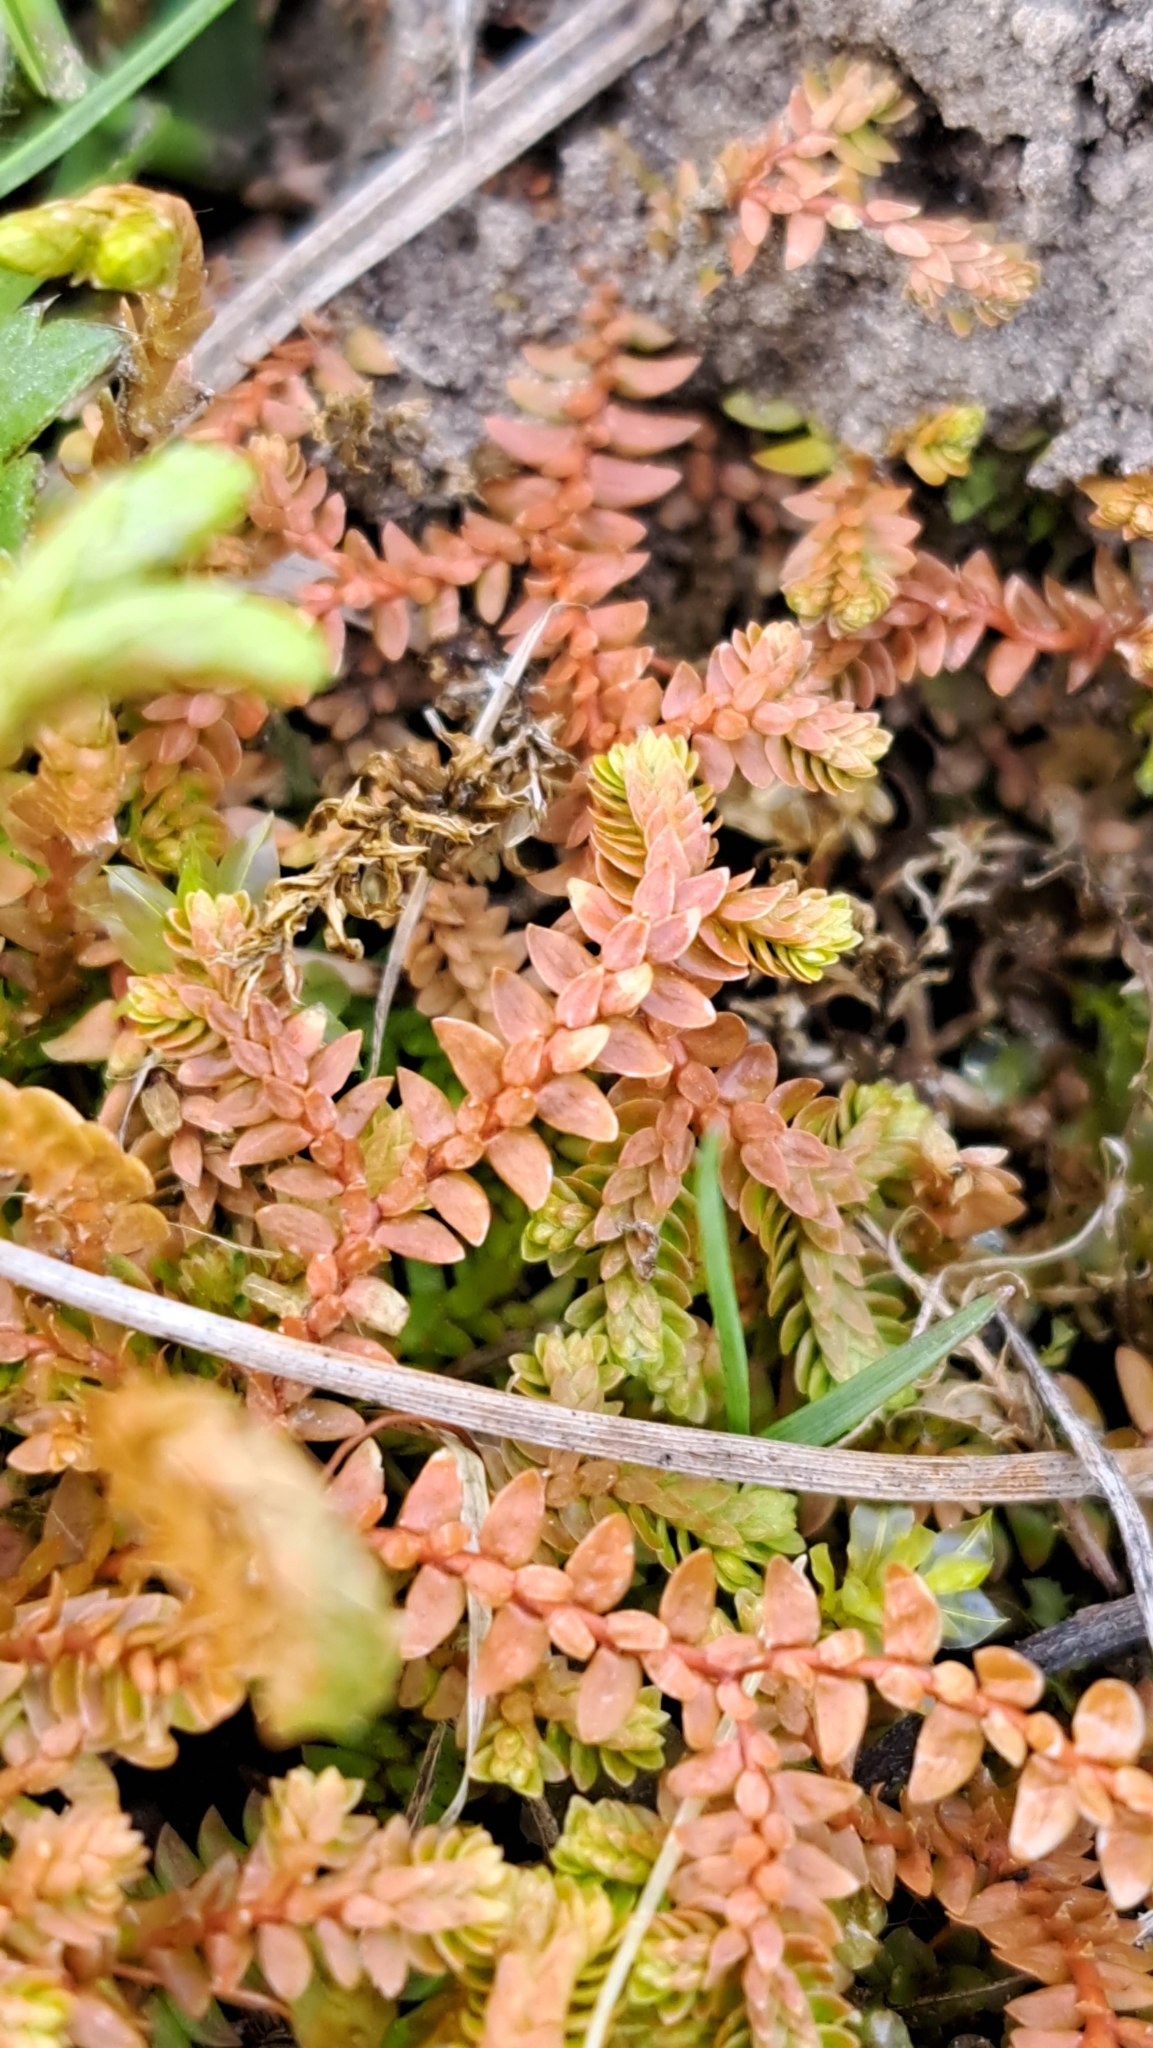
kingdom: Plantae
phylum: Tracheophyta
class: Lycopodiopsida
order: Selaginellales
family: Selaginellaceae
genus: Selaginella
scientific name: Selaginella helvetica
